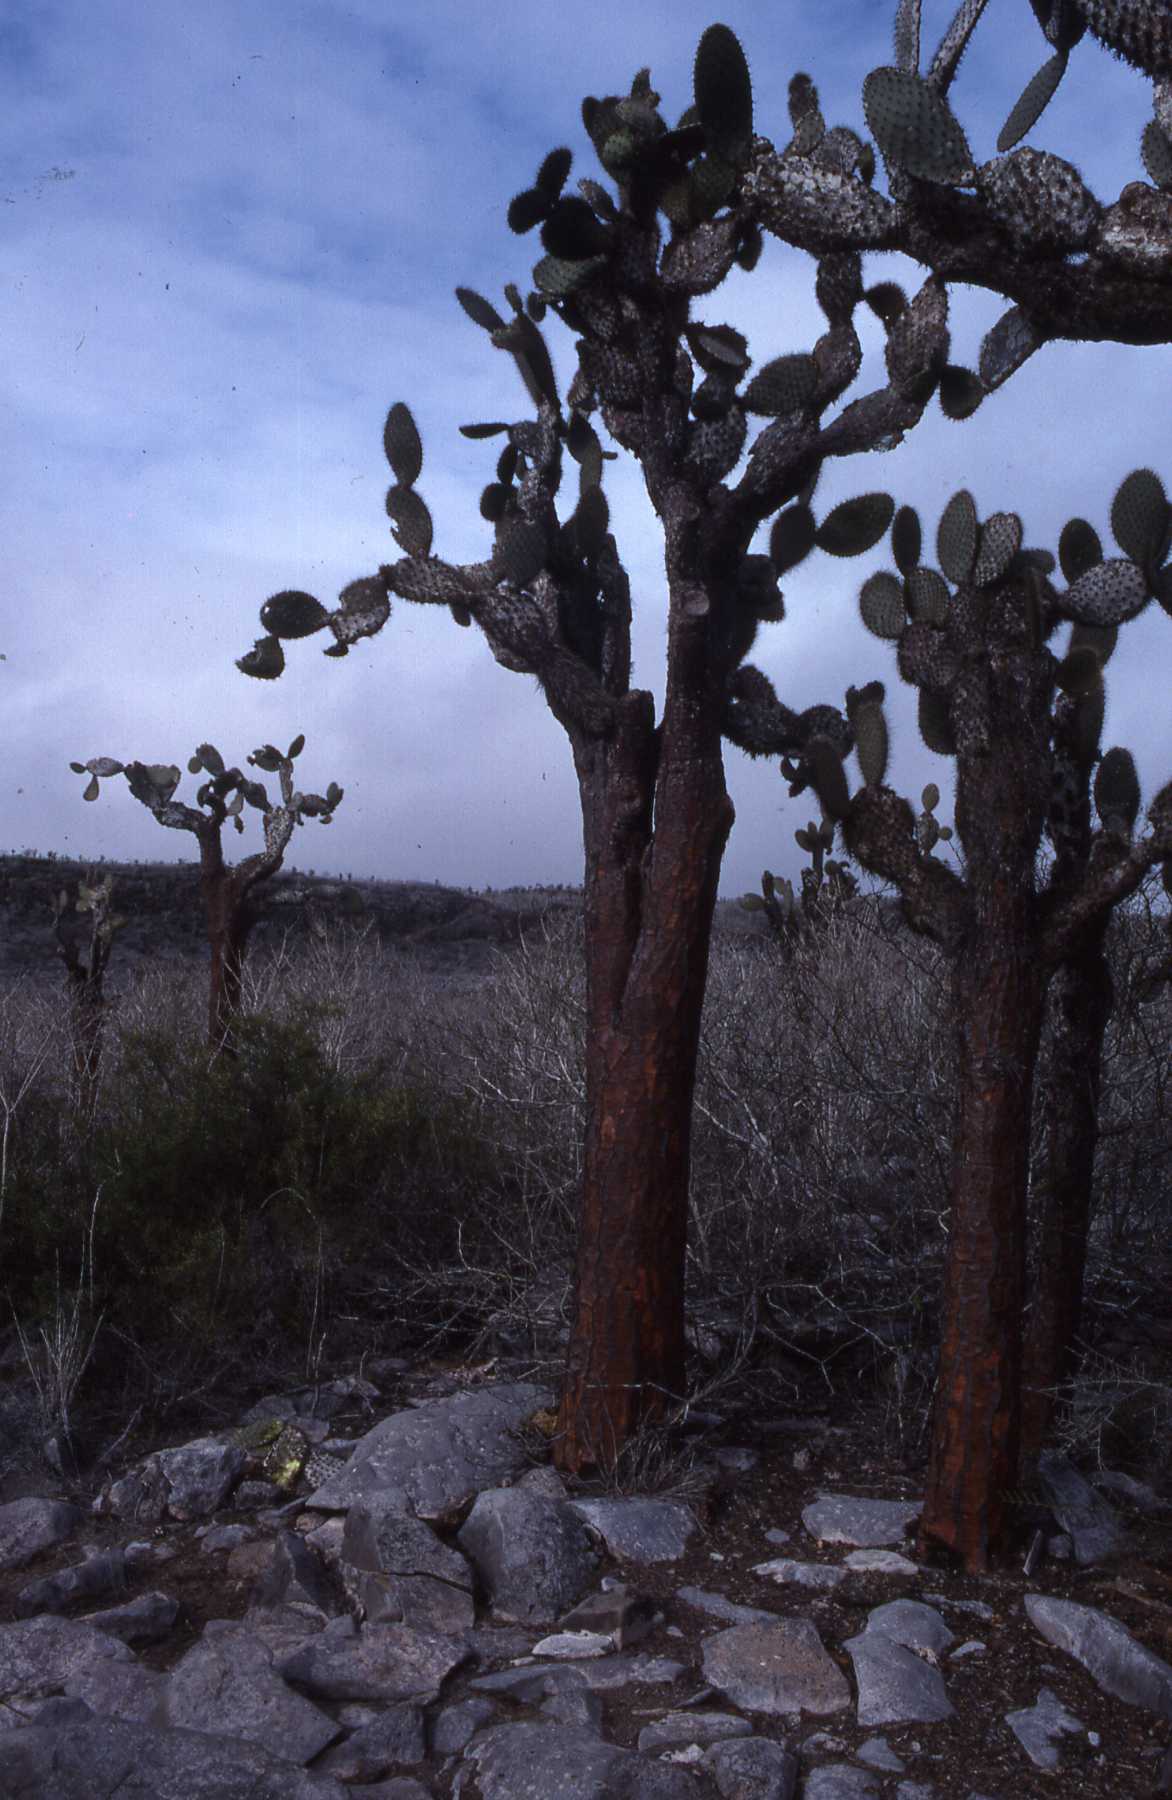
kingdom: Plantae
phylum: Tracheophyta
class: Magnoliopsida
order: Caryophyllales
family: Cactaceae
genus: Opuntia
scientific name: Opuntia galapageia
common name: Galápagos prickly pear
